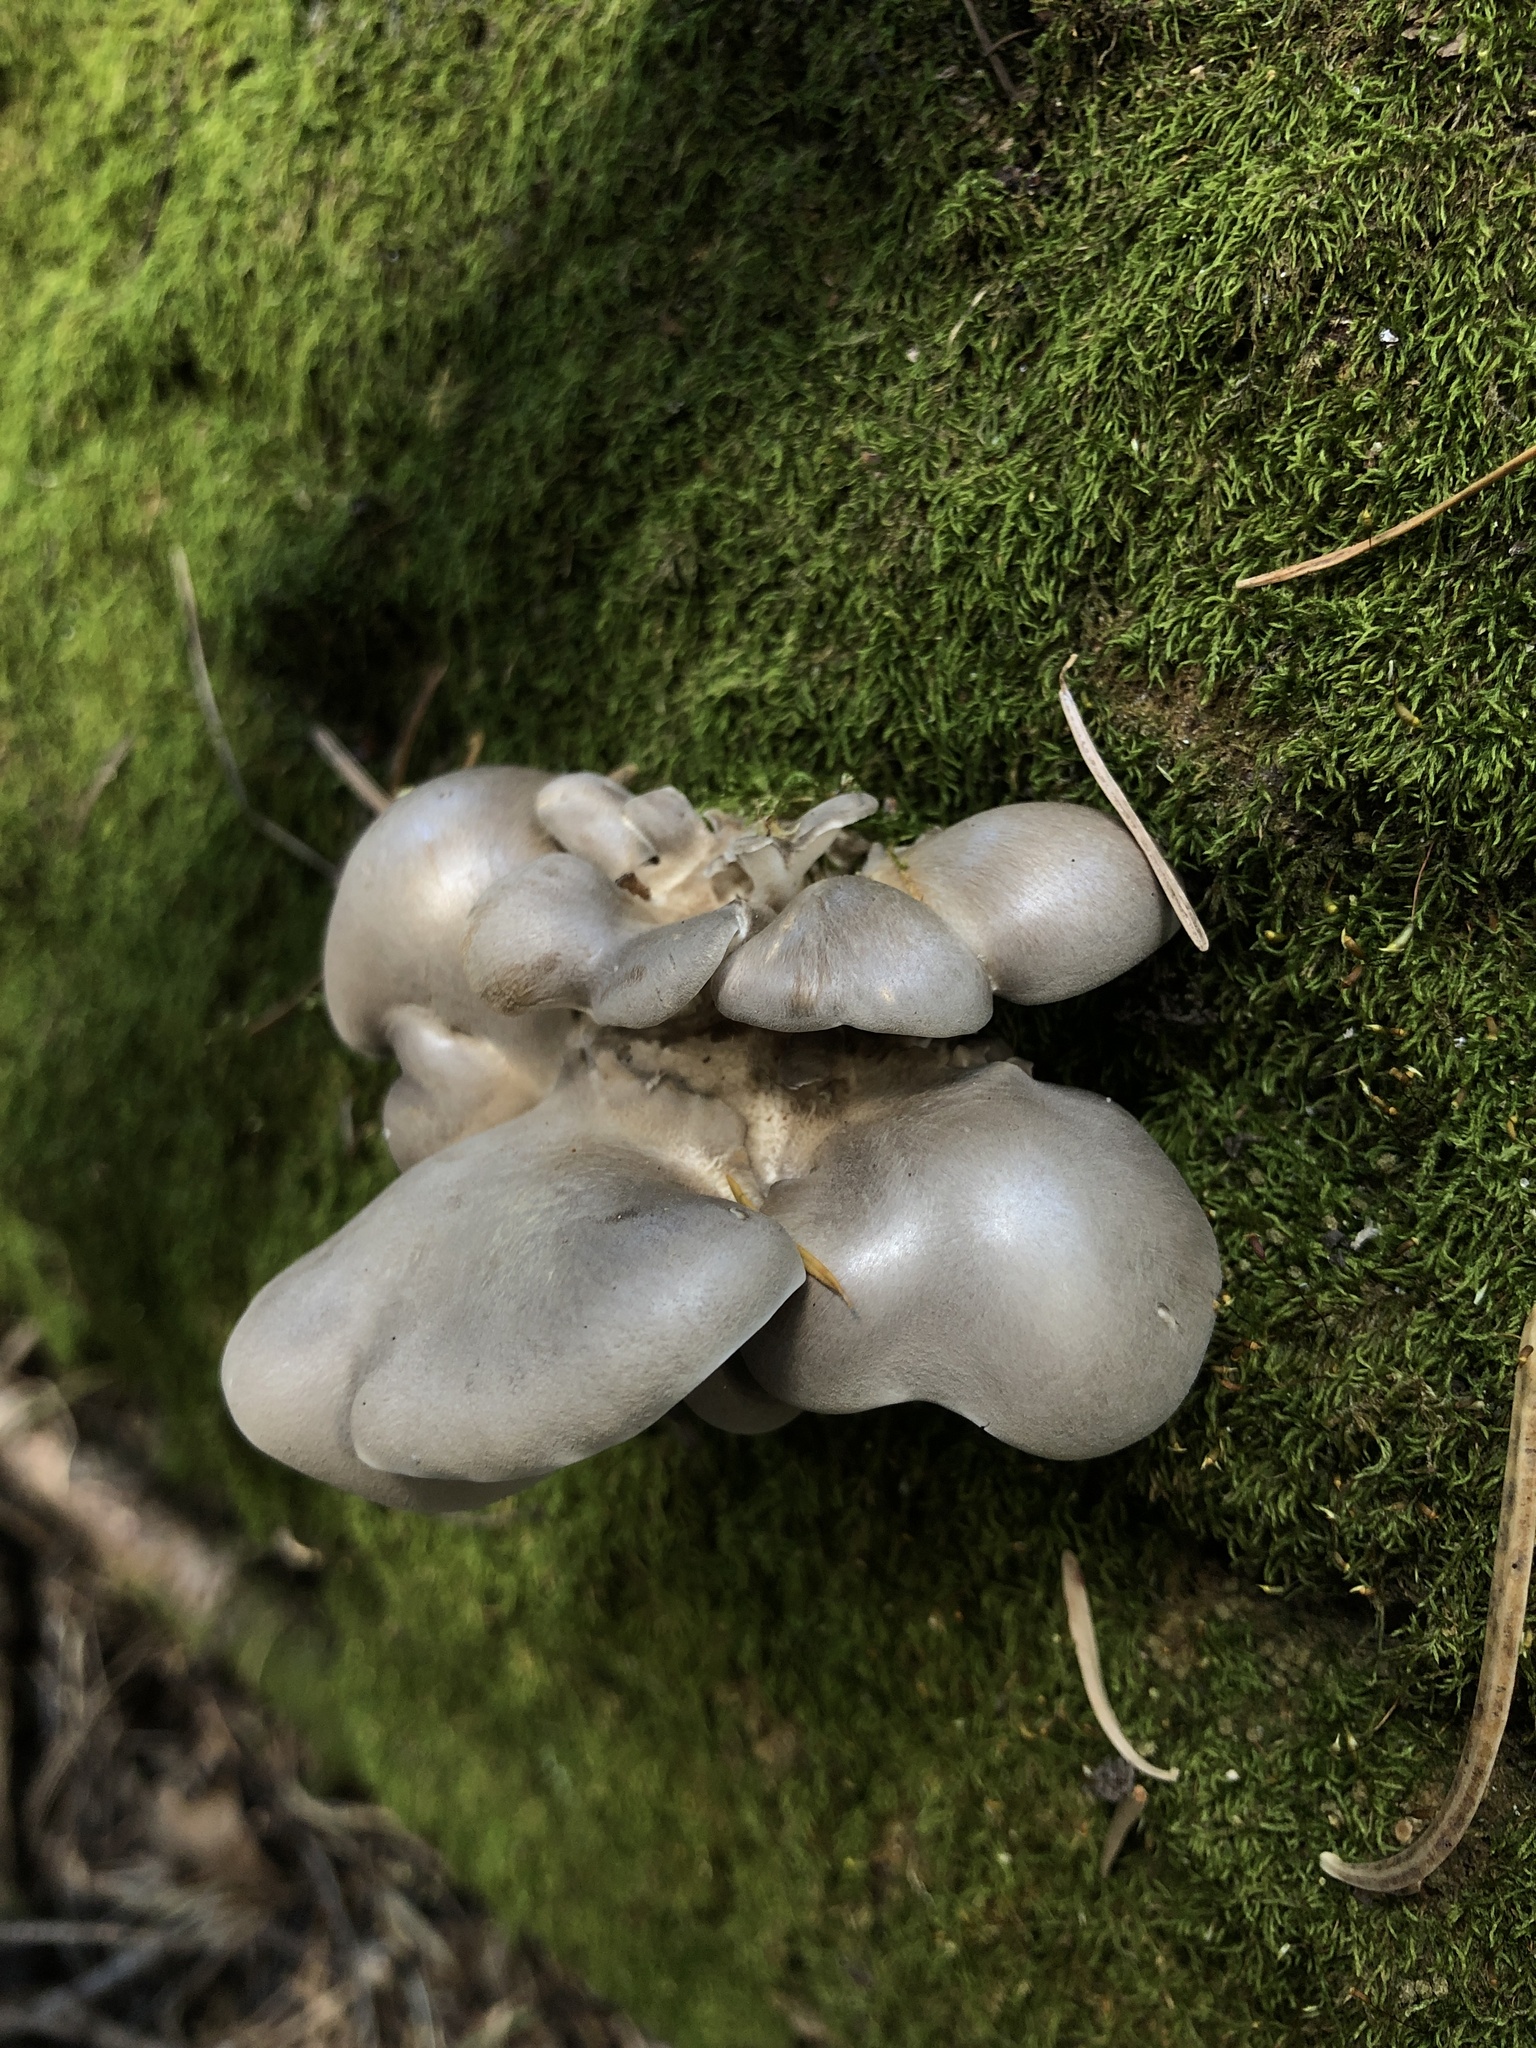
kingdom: Fungi
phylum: Basidiomycota
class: Agaricomycetes
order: Polyporales
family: Dacryobolaceae
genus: Osteina
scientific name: Osteina obducta
